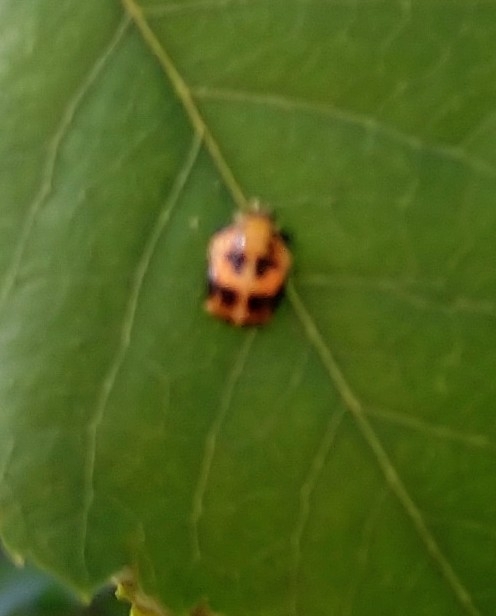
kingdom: Animalia
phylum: Arthropoda
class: Insecta
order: Coleoptera
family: Coccinellidae
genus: Harmonia
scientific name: Harmonia axyridis
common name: Harlequin ladybird
